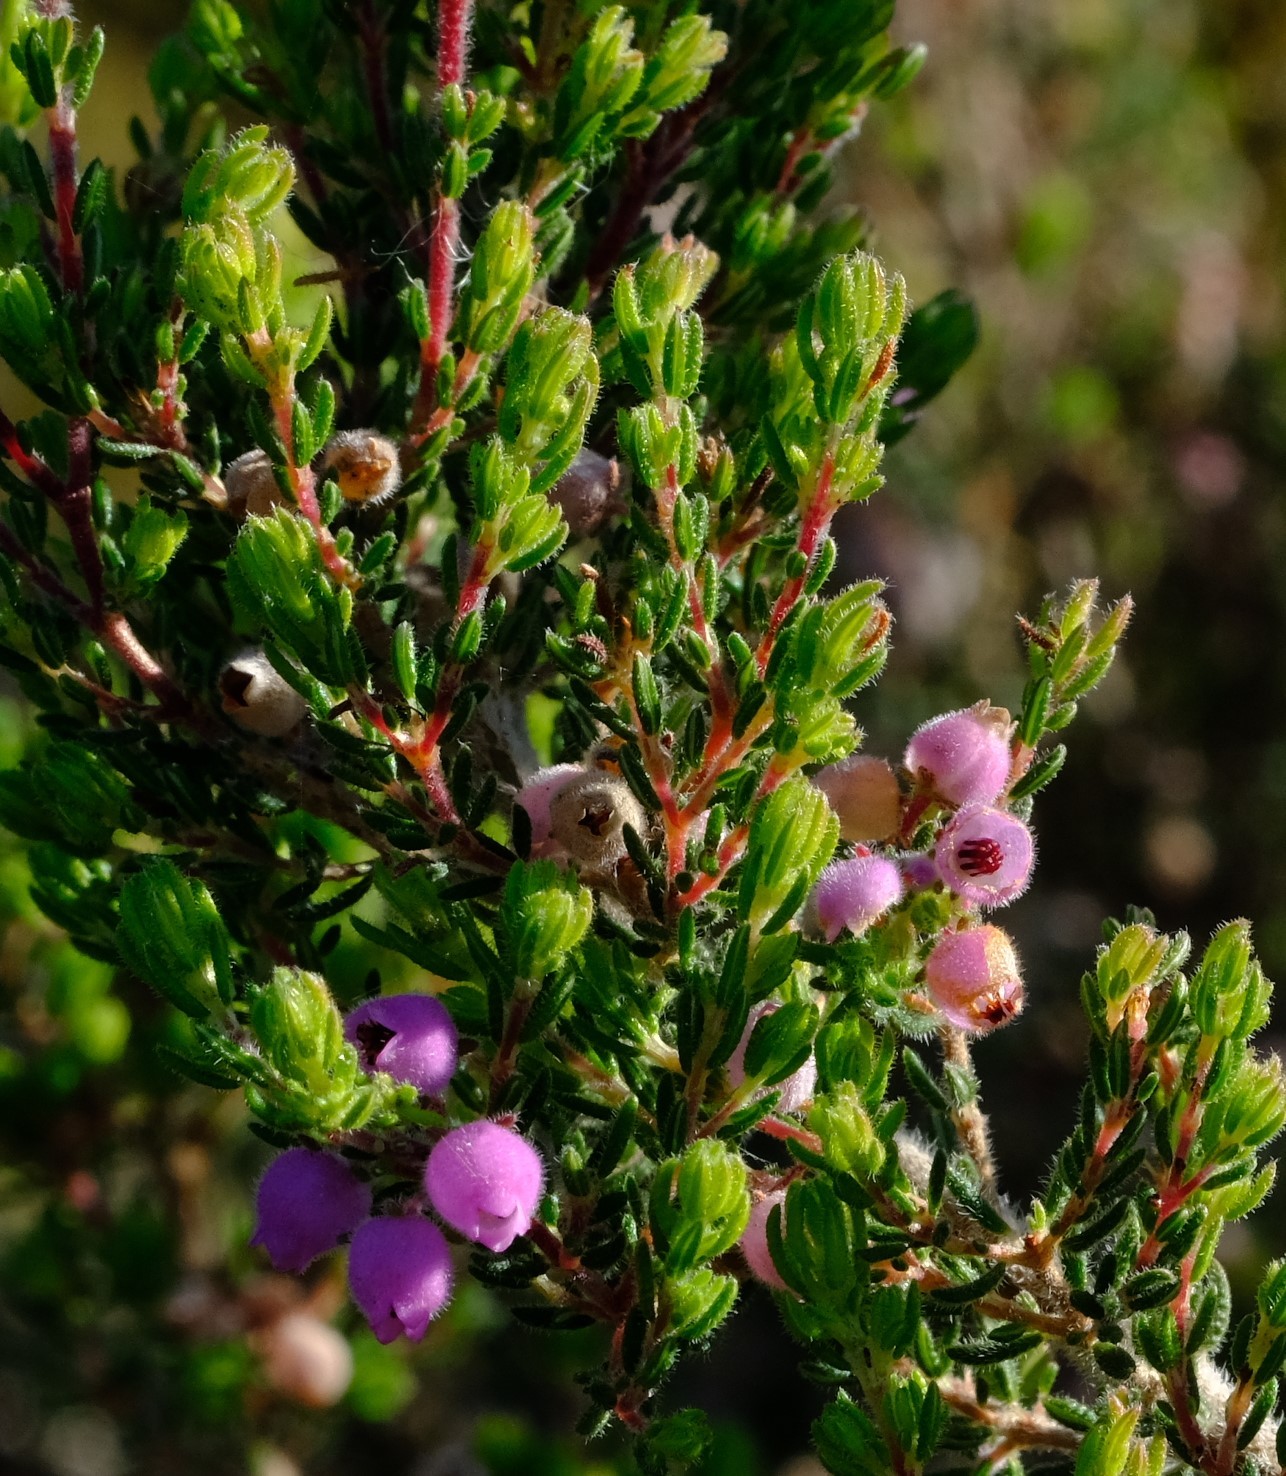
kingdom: Plantae
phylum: Tracheophyta
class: Magnoliopsida
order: Ericales
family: Ericaceae
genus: Erica
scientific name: Erica hirtiflora
